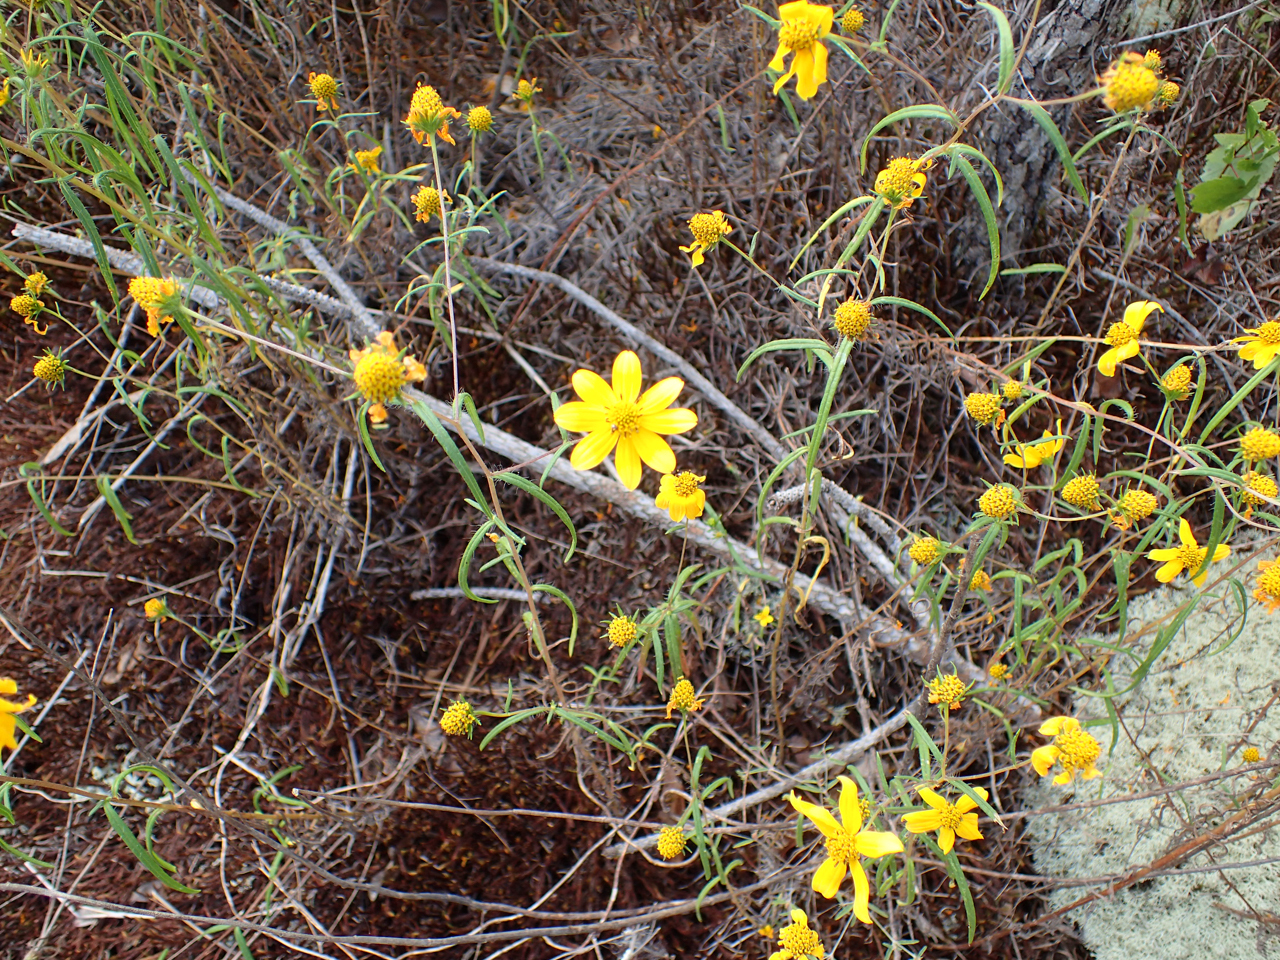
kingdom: Plantae
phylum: Tracheophyta
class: Magnoliopsida
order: Asterales
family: Asteraceae
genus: Helianthus
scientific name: Helianthus porteri
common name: Porter's sunflower
